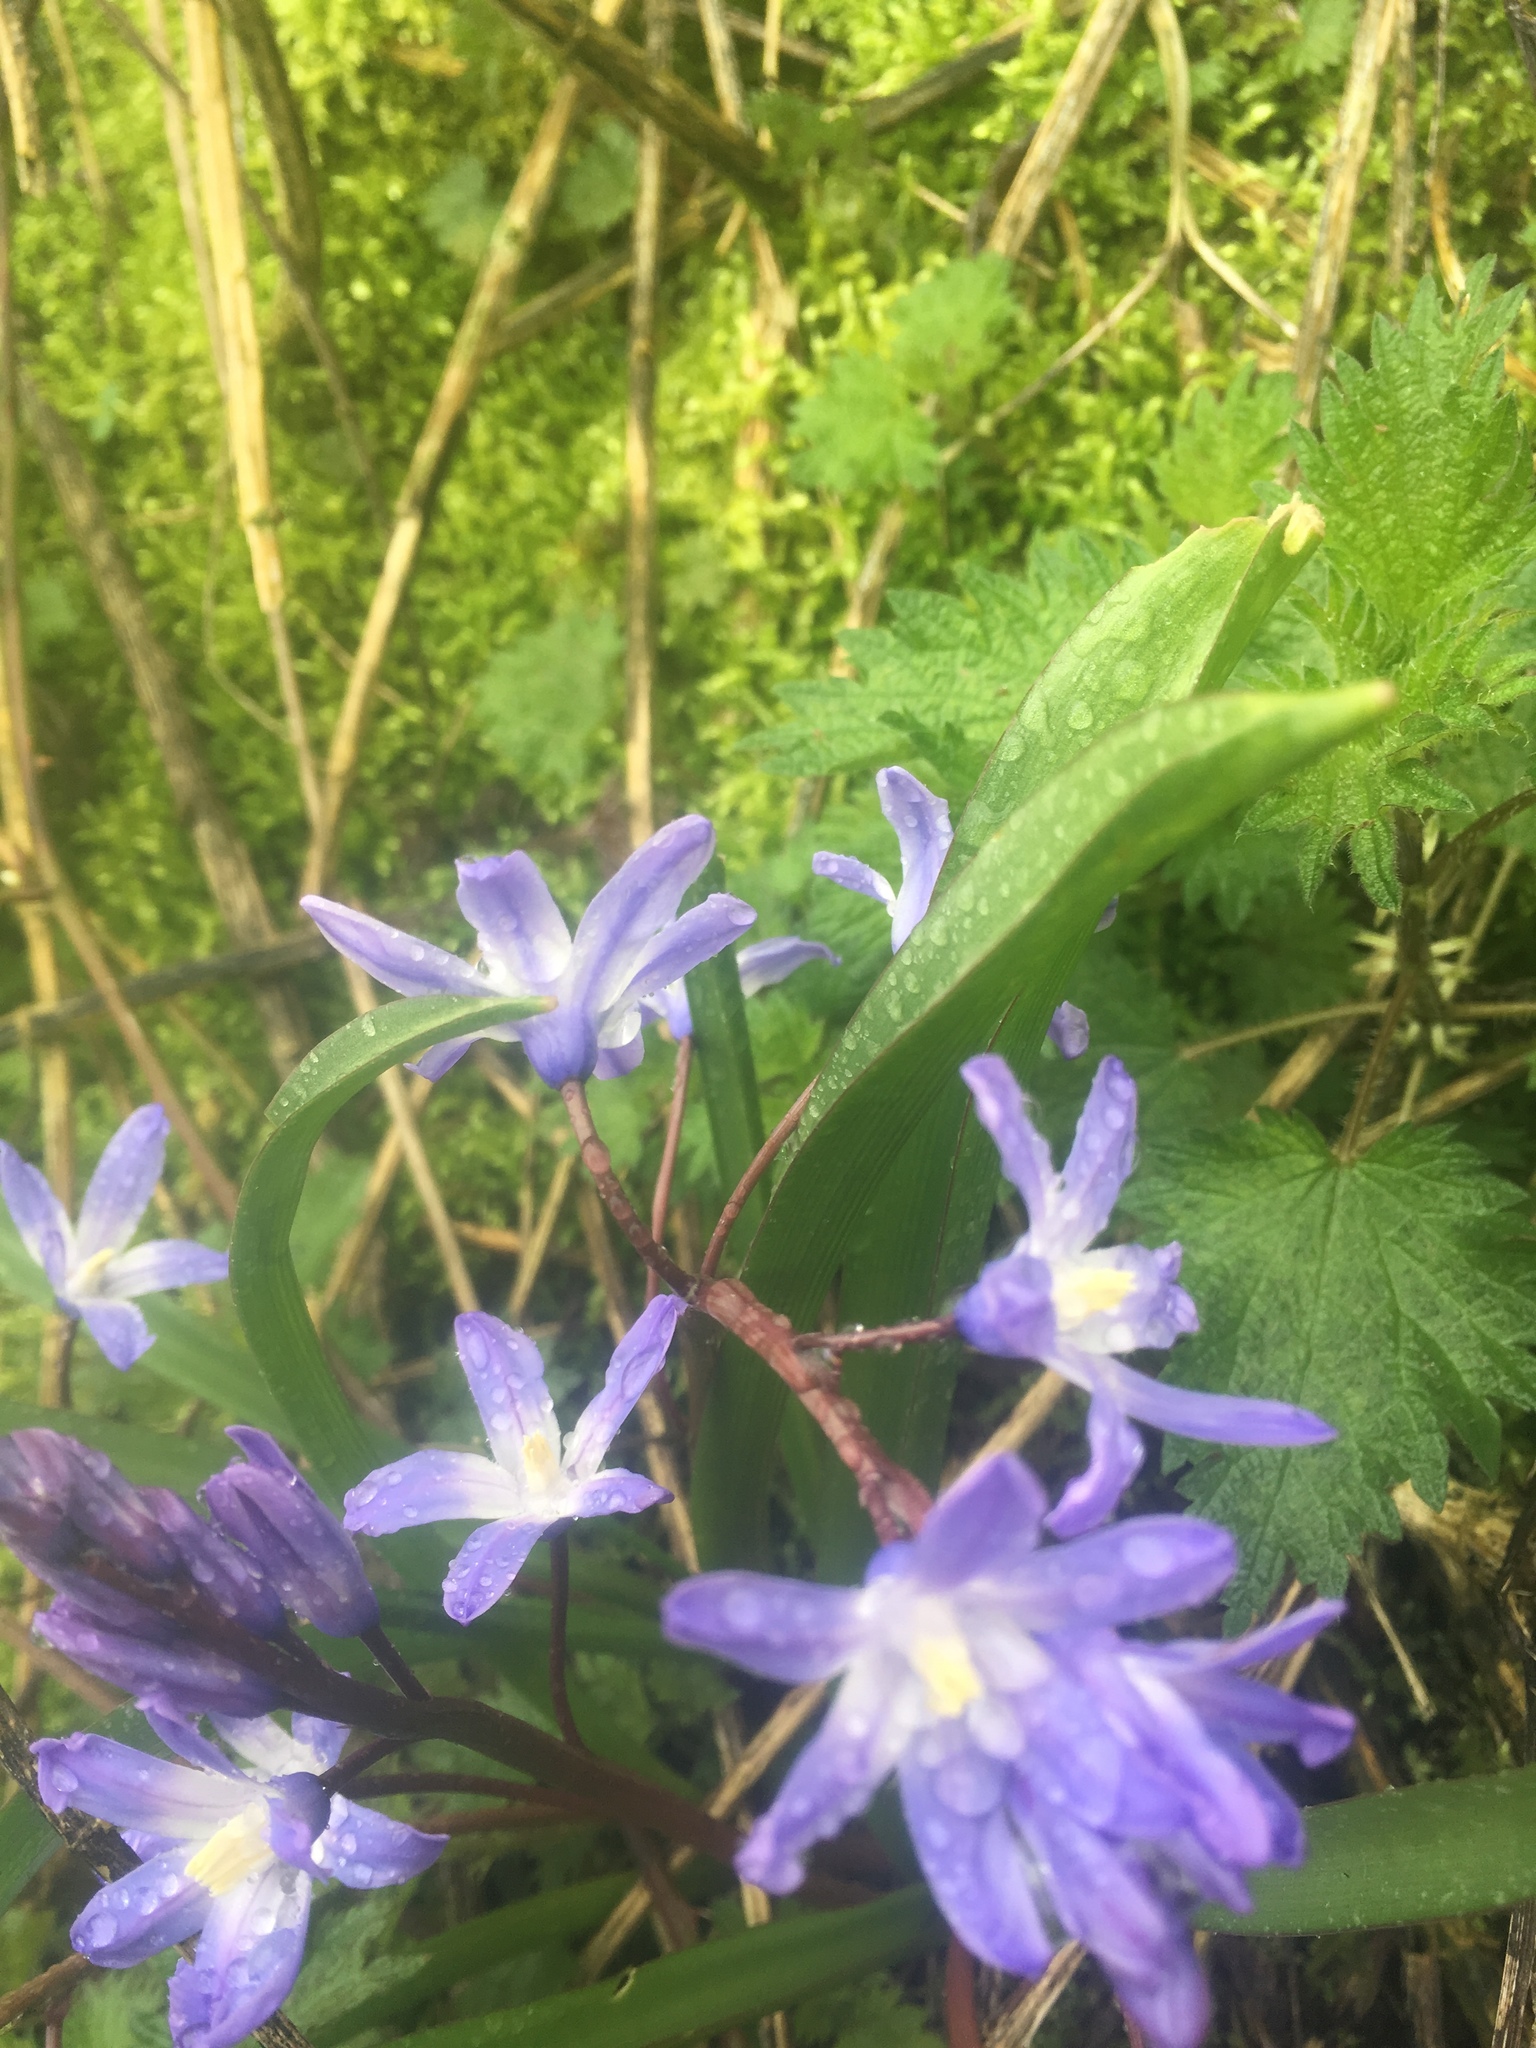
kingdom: Plantae
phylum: Tracheophyta
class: Liliopsida
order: Asparagales
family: Asparagaceae
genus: Scilla
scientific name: Scilla forbesii
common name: Glory-of-the-snow
